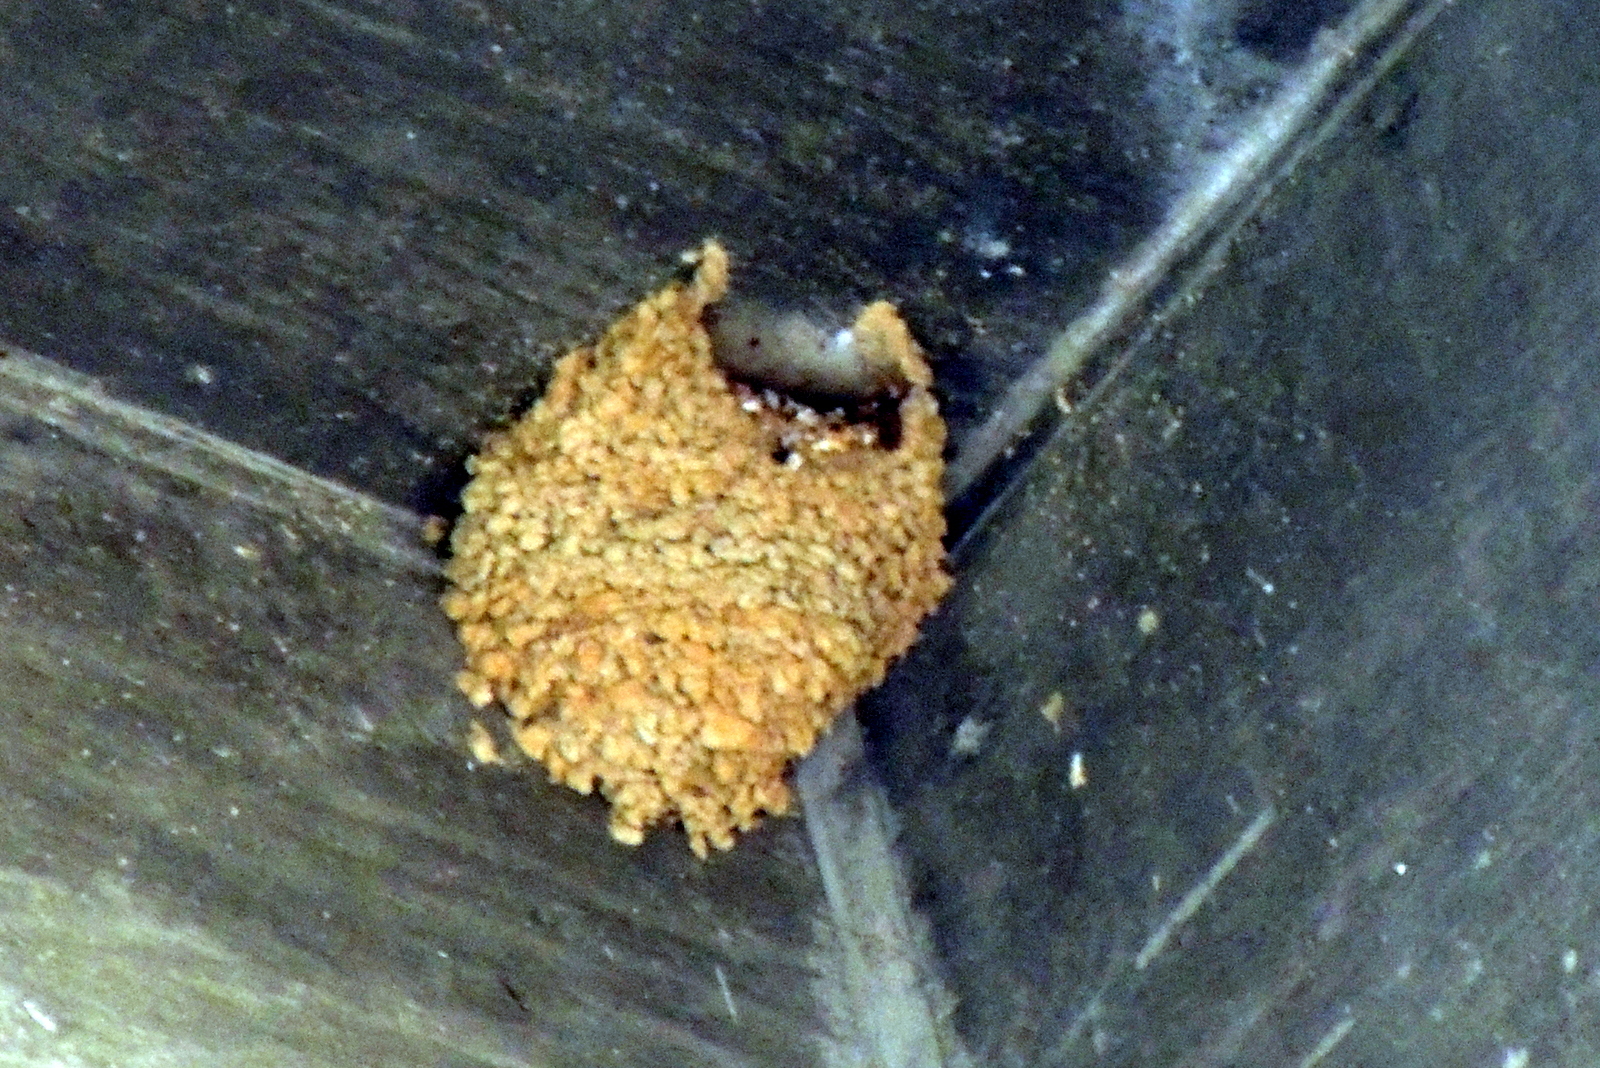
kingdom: Animalia
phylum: Chordata
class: Aves
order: Passeriformes
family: Hirundinidae
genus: Petrochelidon
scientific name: Petrochelidon pyrrhonota
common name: American cliff swallow
